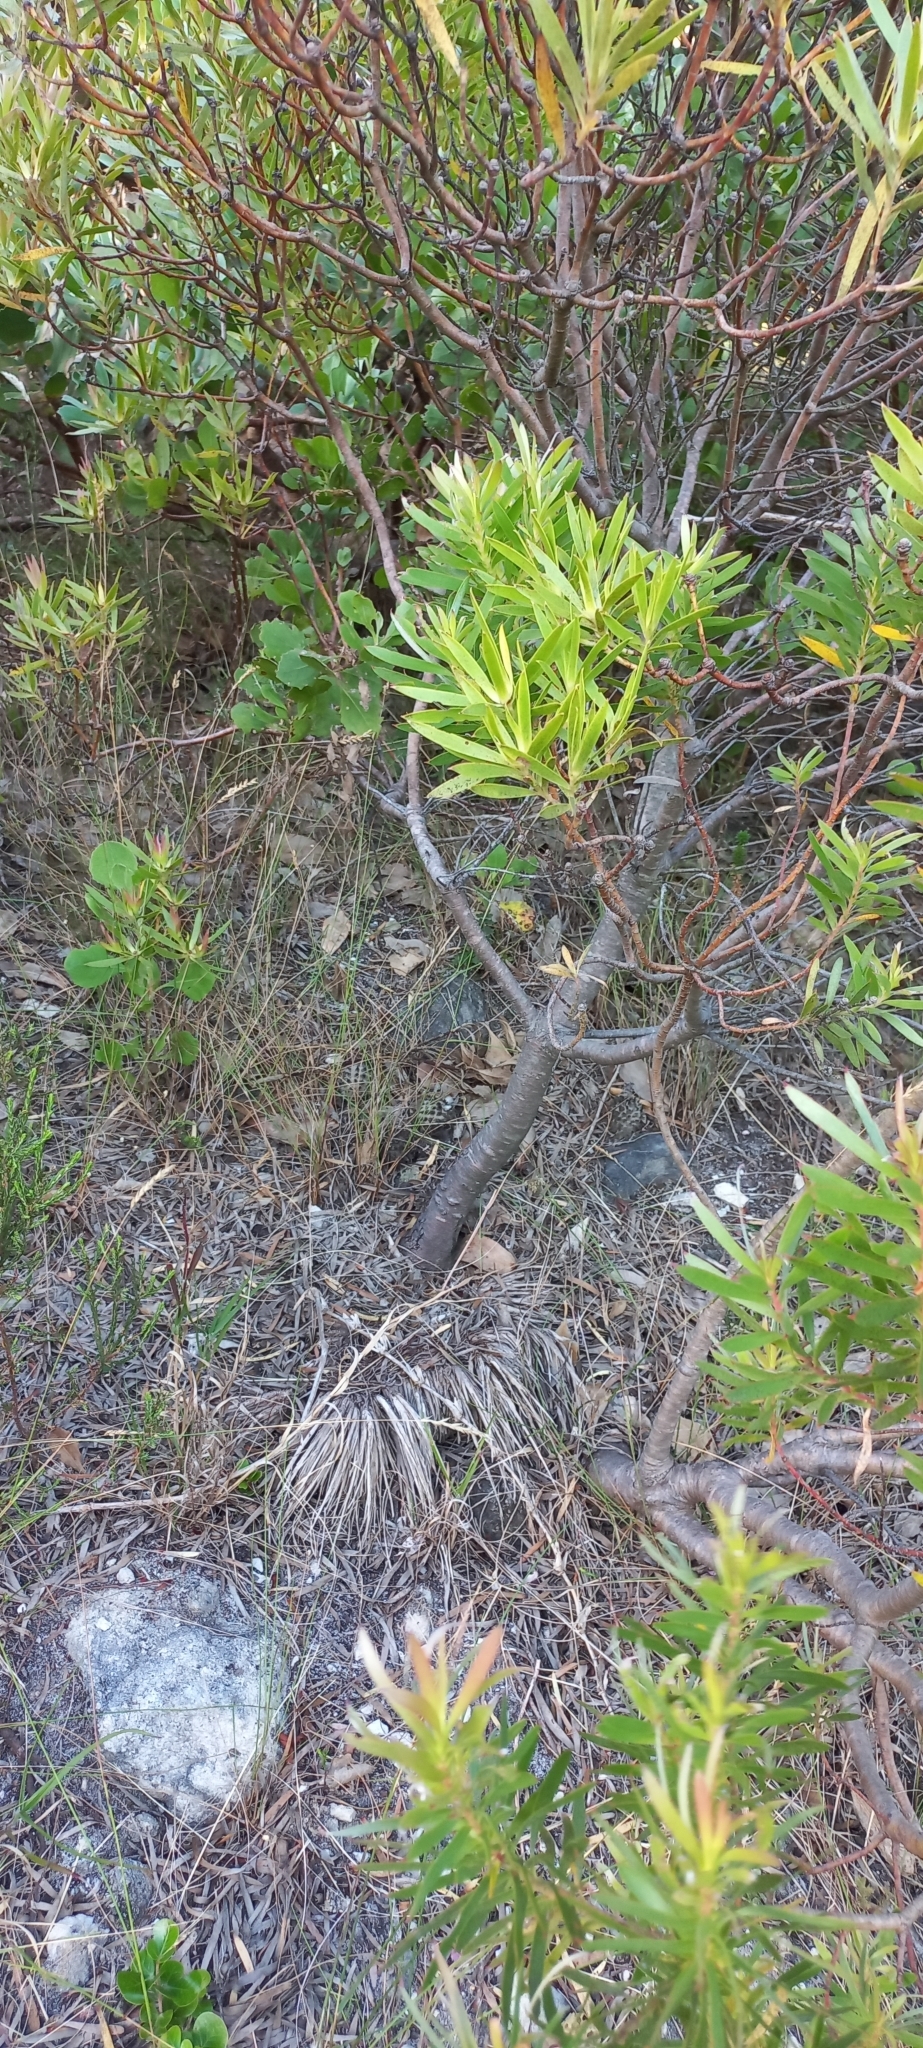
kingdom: Plantae
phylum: Tracheophyta
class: Magnoliopsida
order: Proteales
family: Proteaceae
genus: Leucadendron
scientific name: Leucadendron coniferum
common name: Dune conebush
